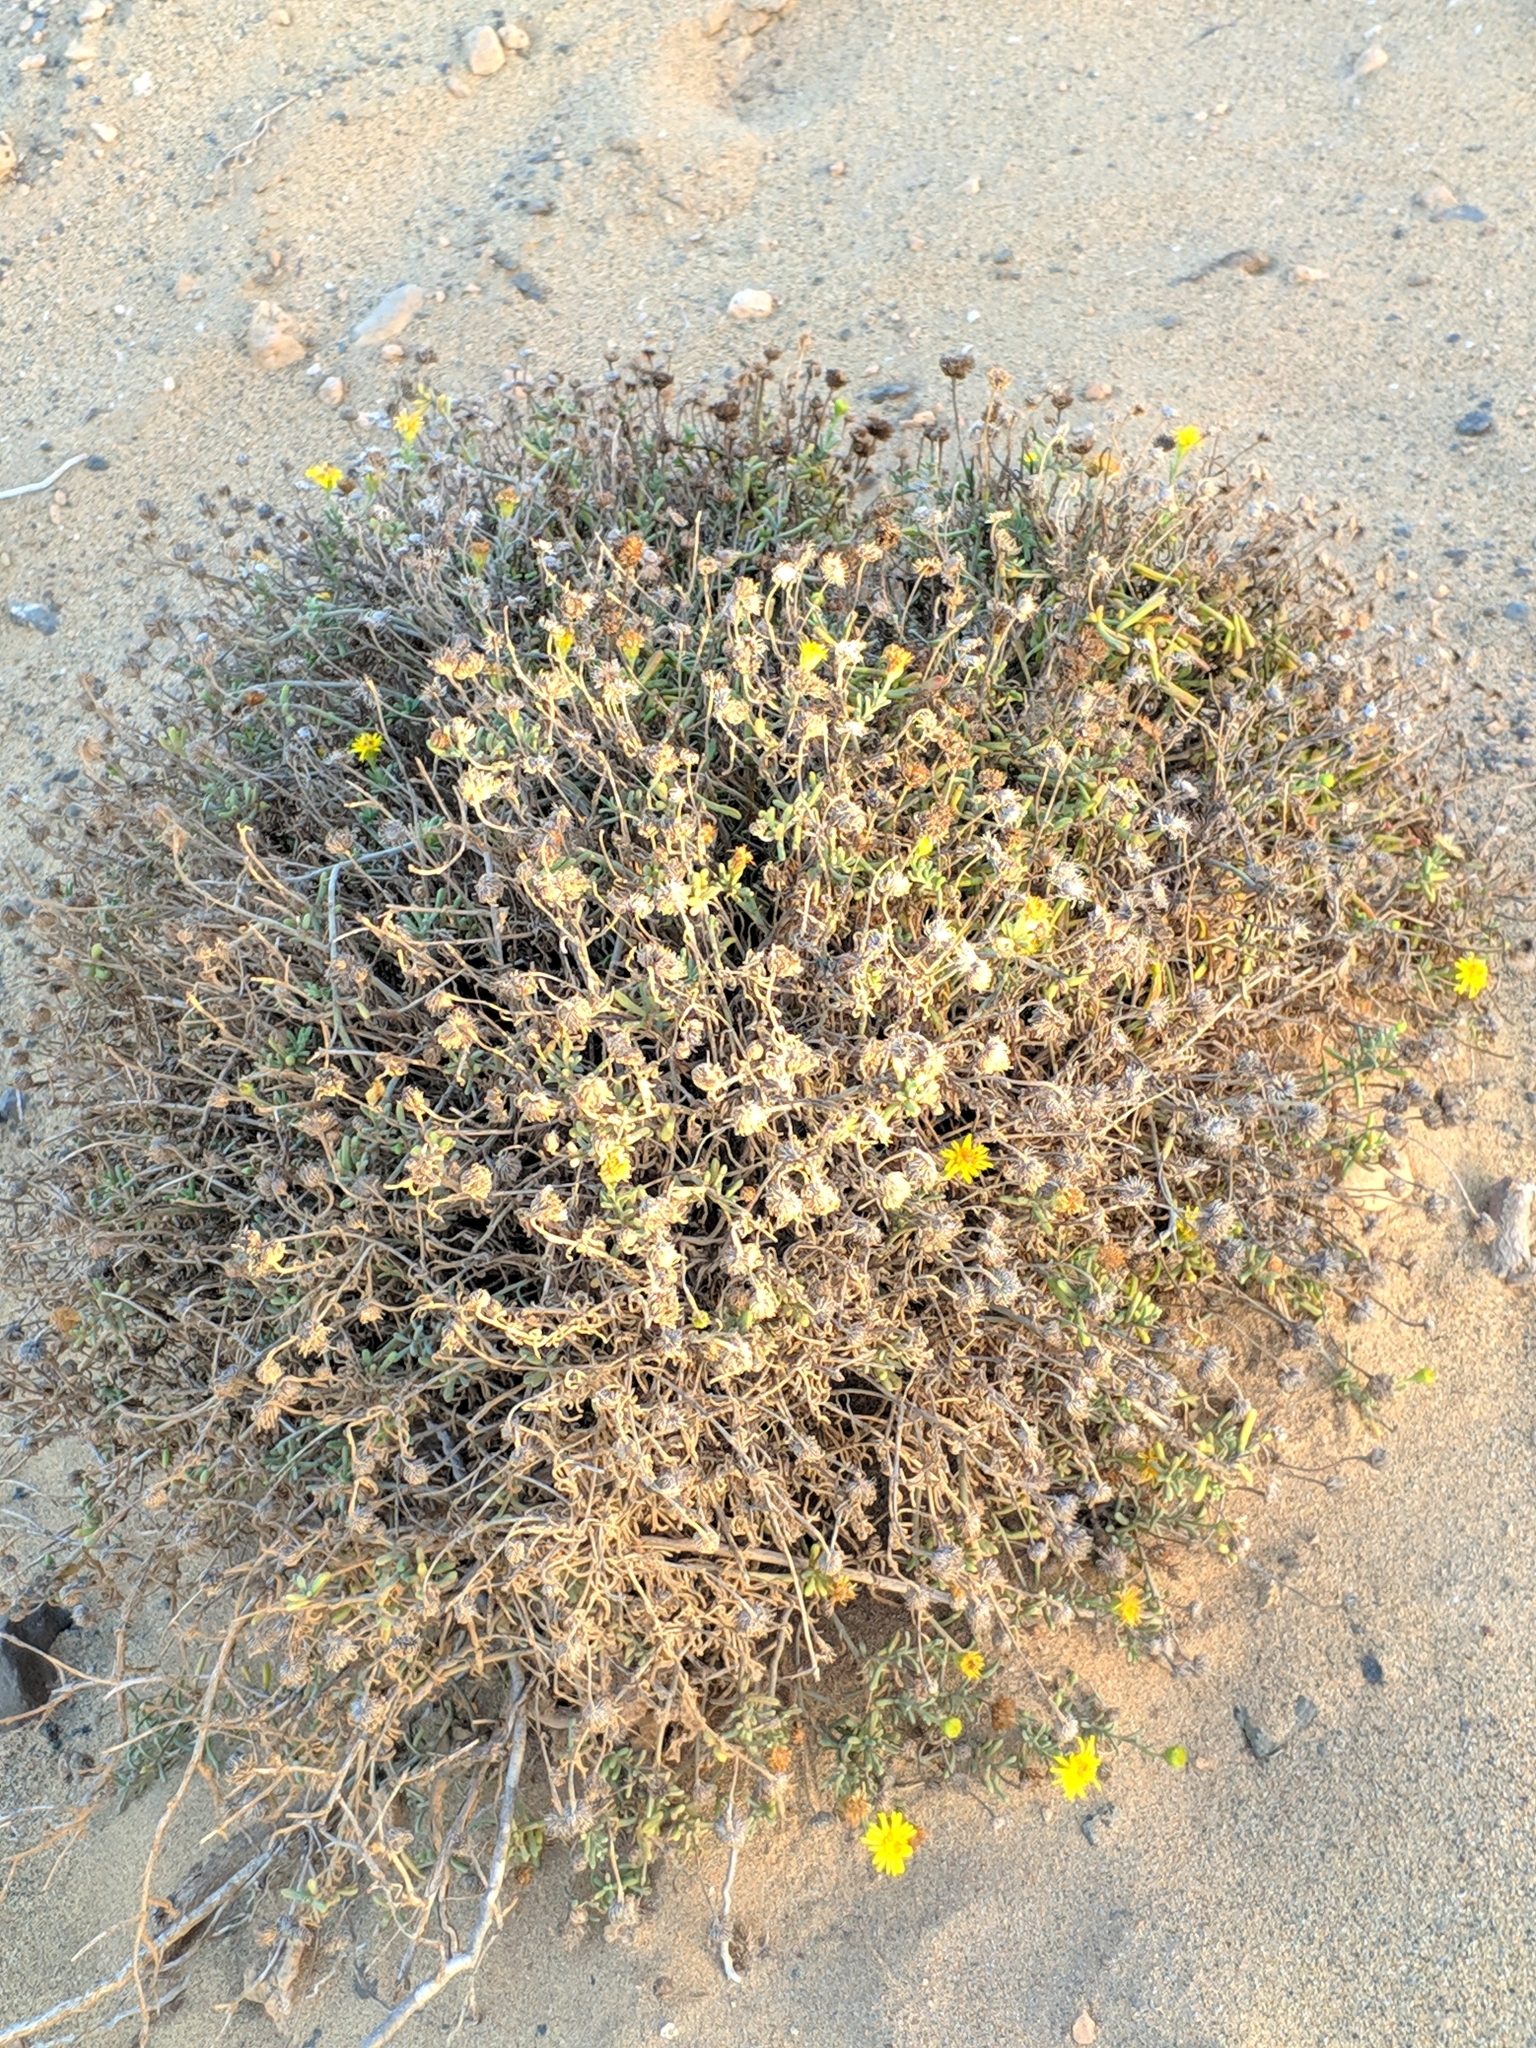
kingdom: Plantae
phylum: Tracheophyta
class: Magnoliopsida
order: Asterales
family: Asteraceae
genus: Pulicaria
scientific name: Pulicaria burchardii
